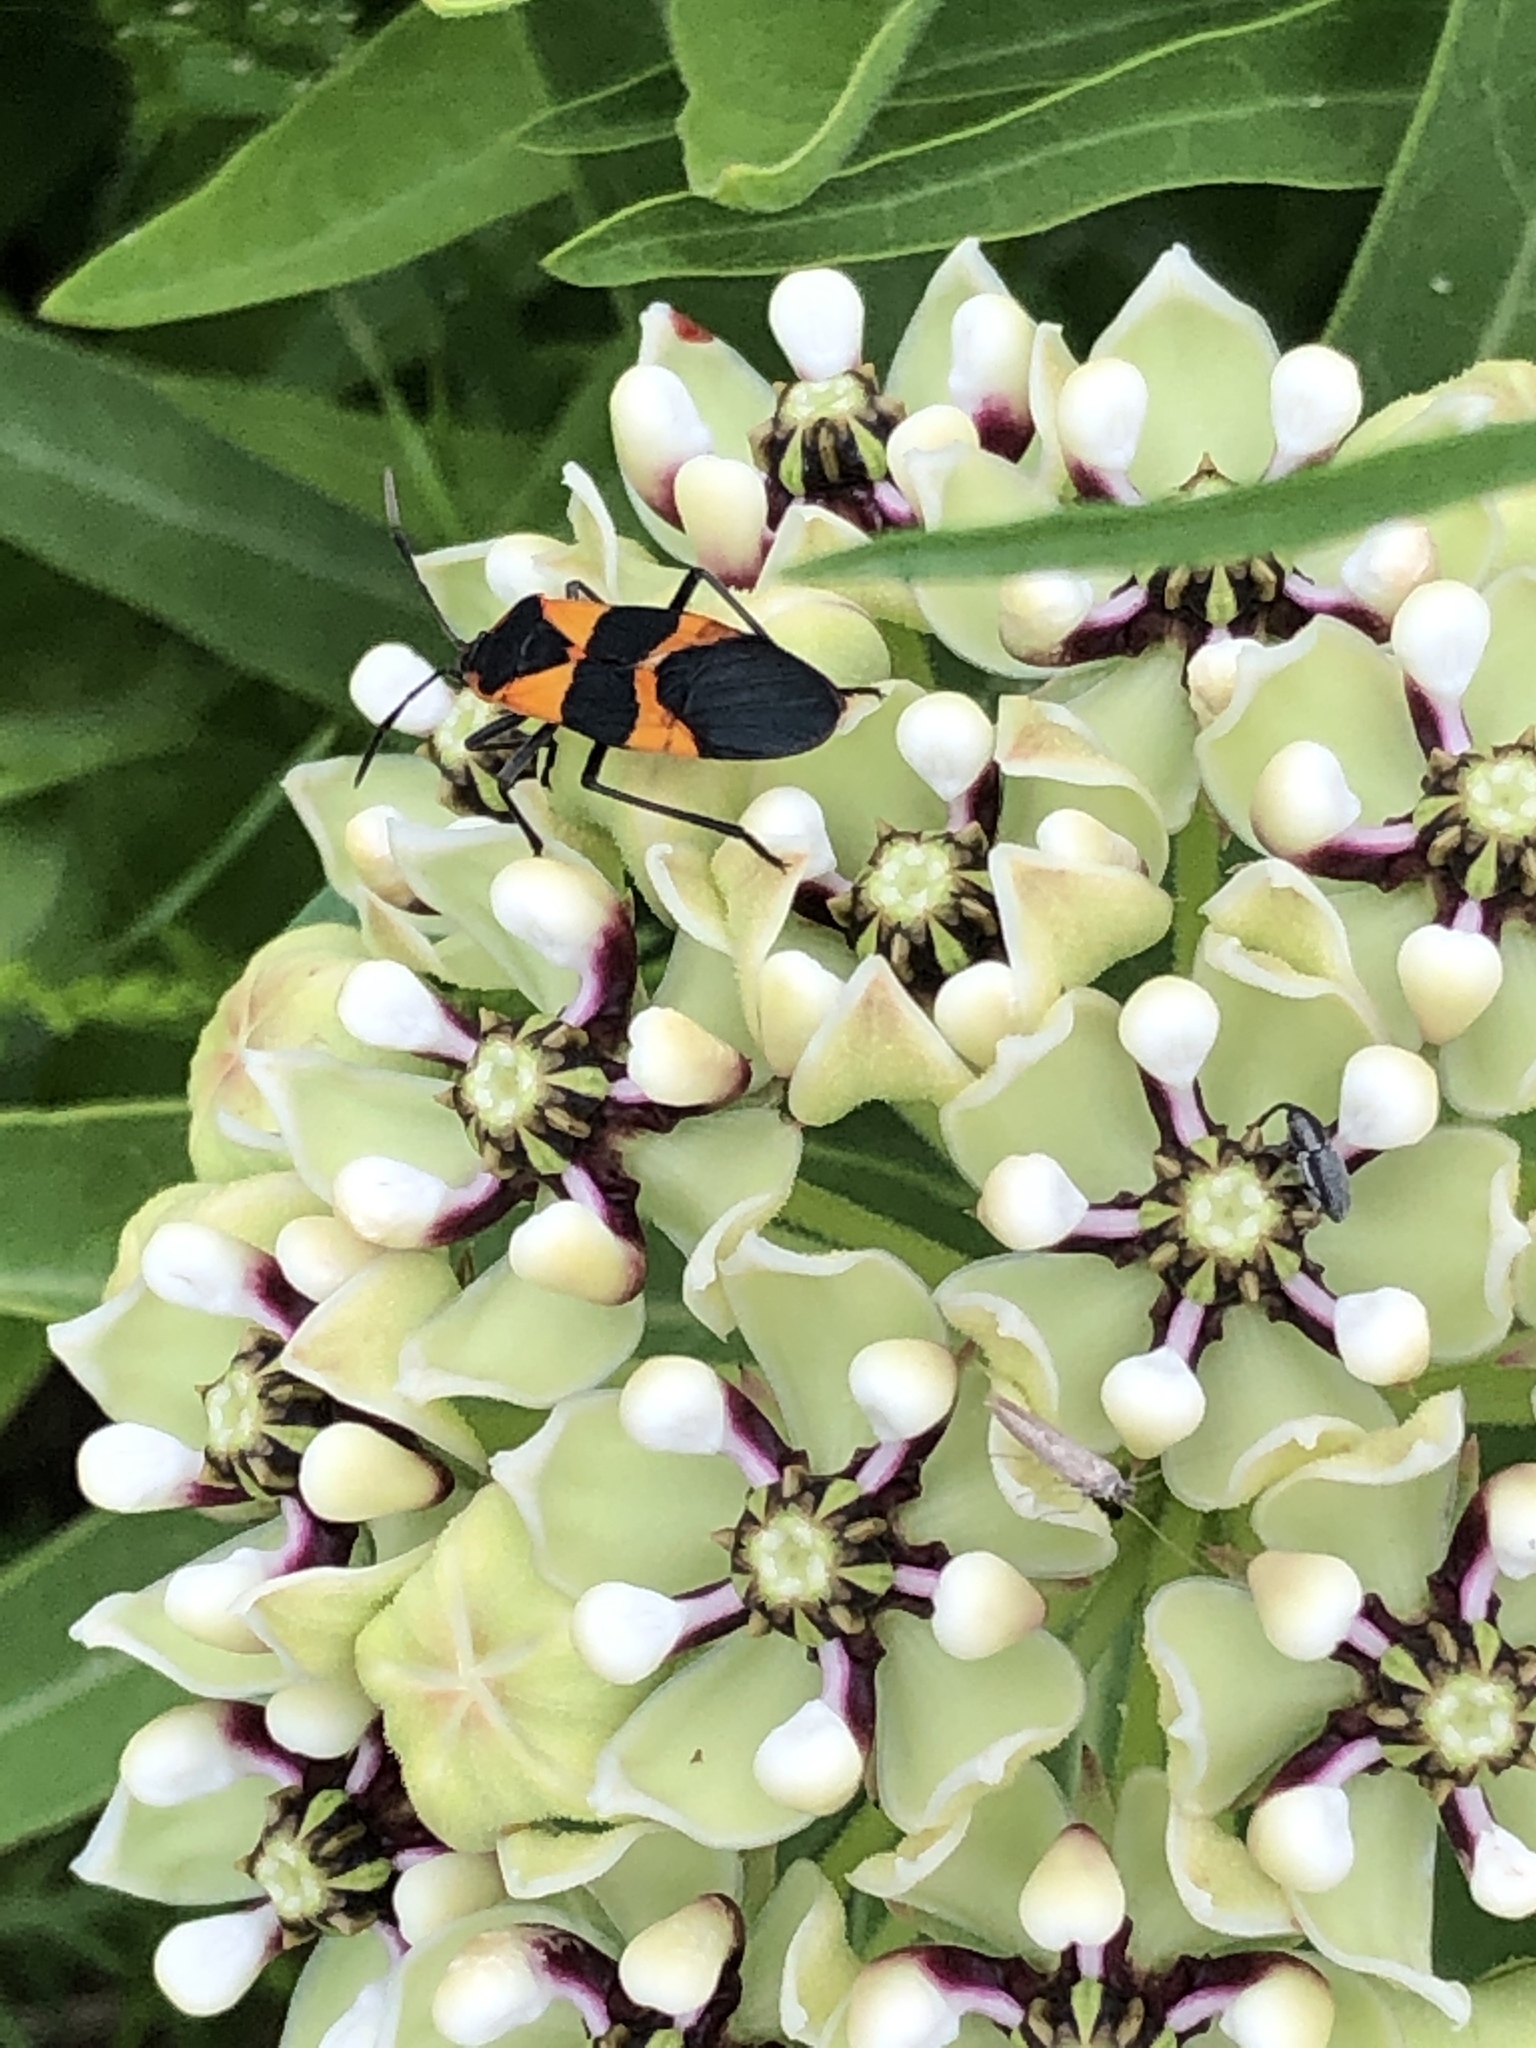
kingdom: Animalia
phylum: Arthropoda
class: Insecta
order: Hemiptera
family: Lygaeidae
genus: Oncopeltus
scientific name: Oncopeltus fasciatus
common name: Large milkweed bug
